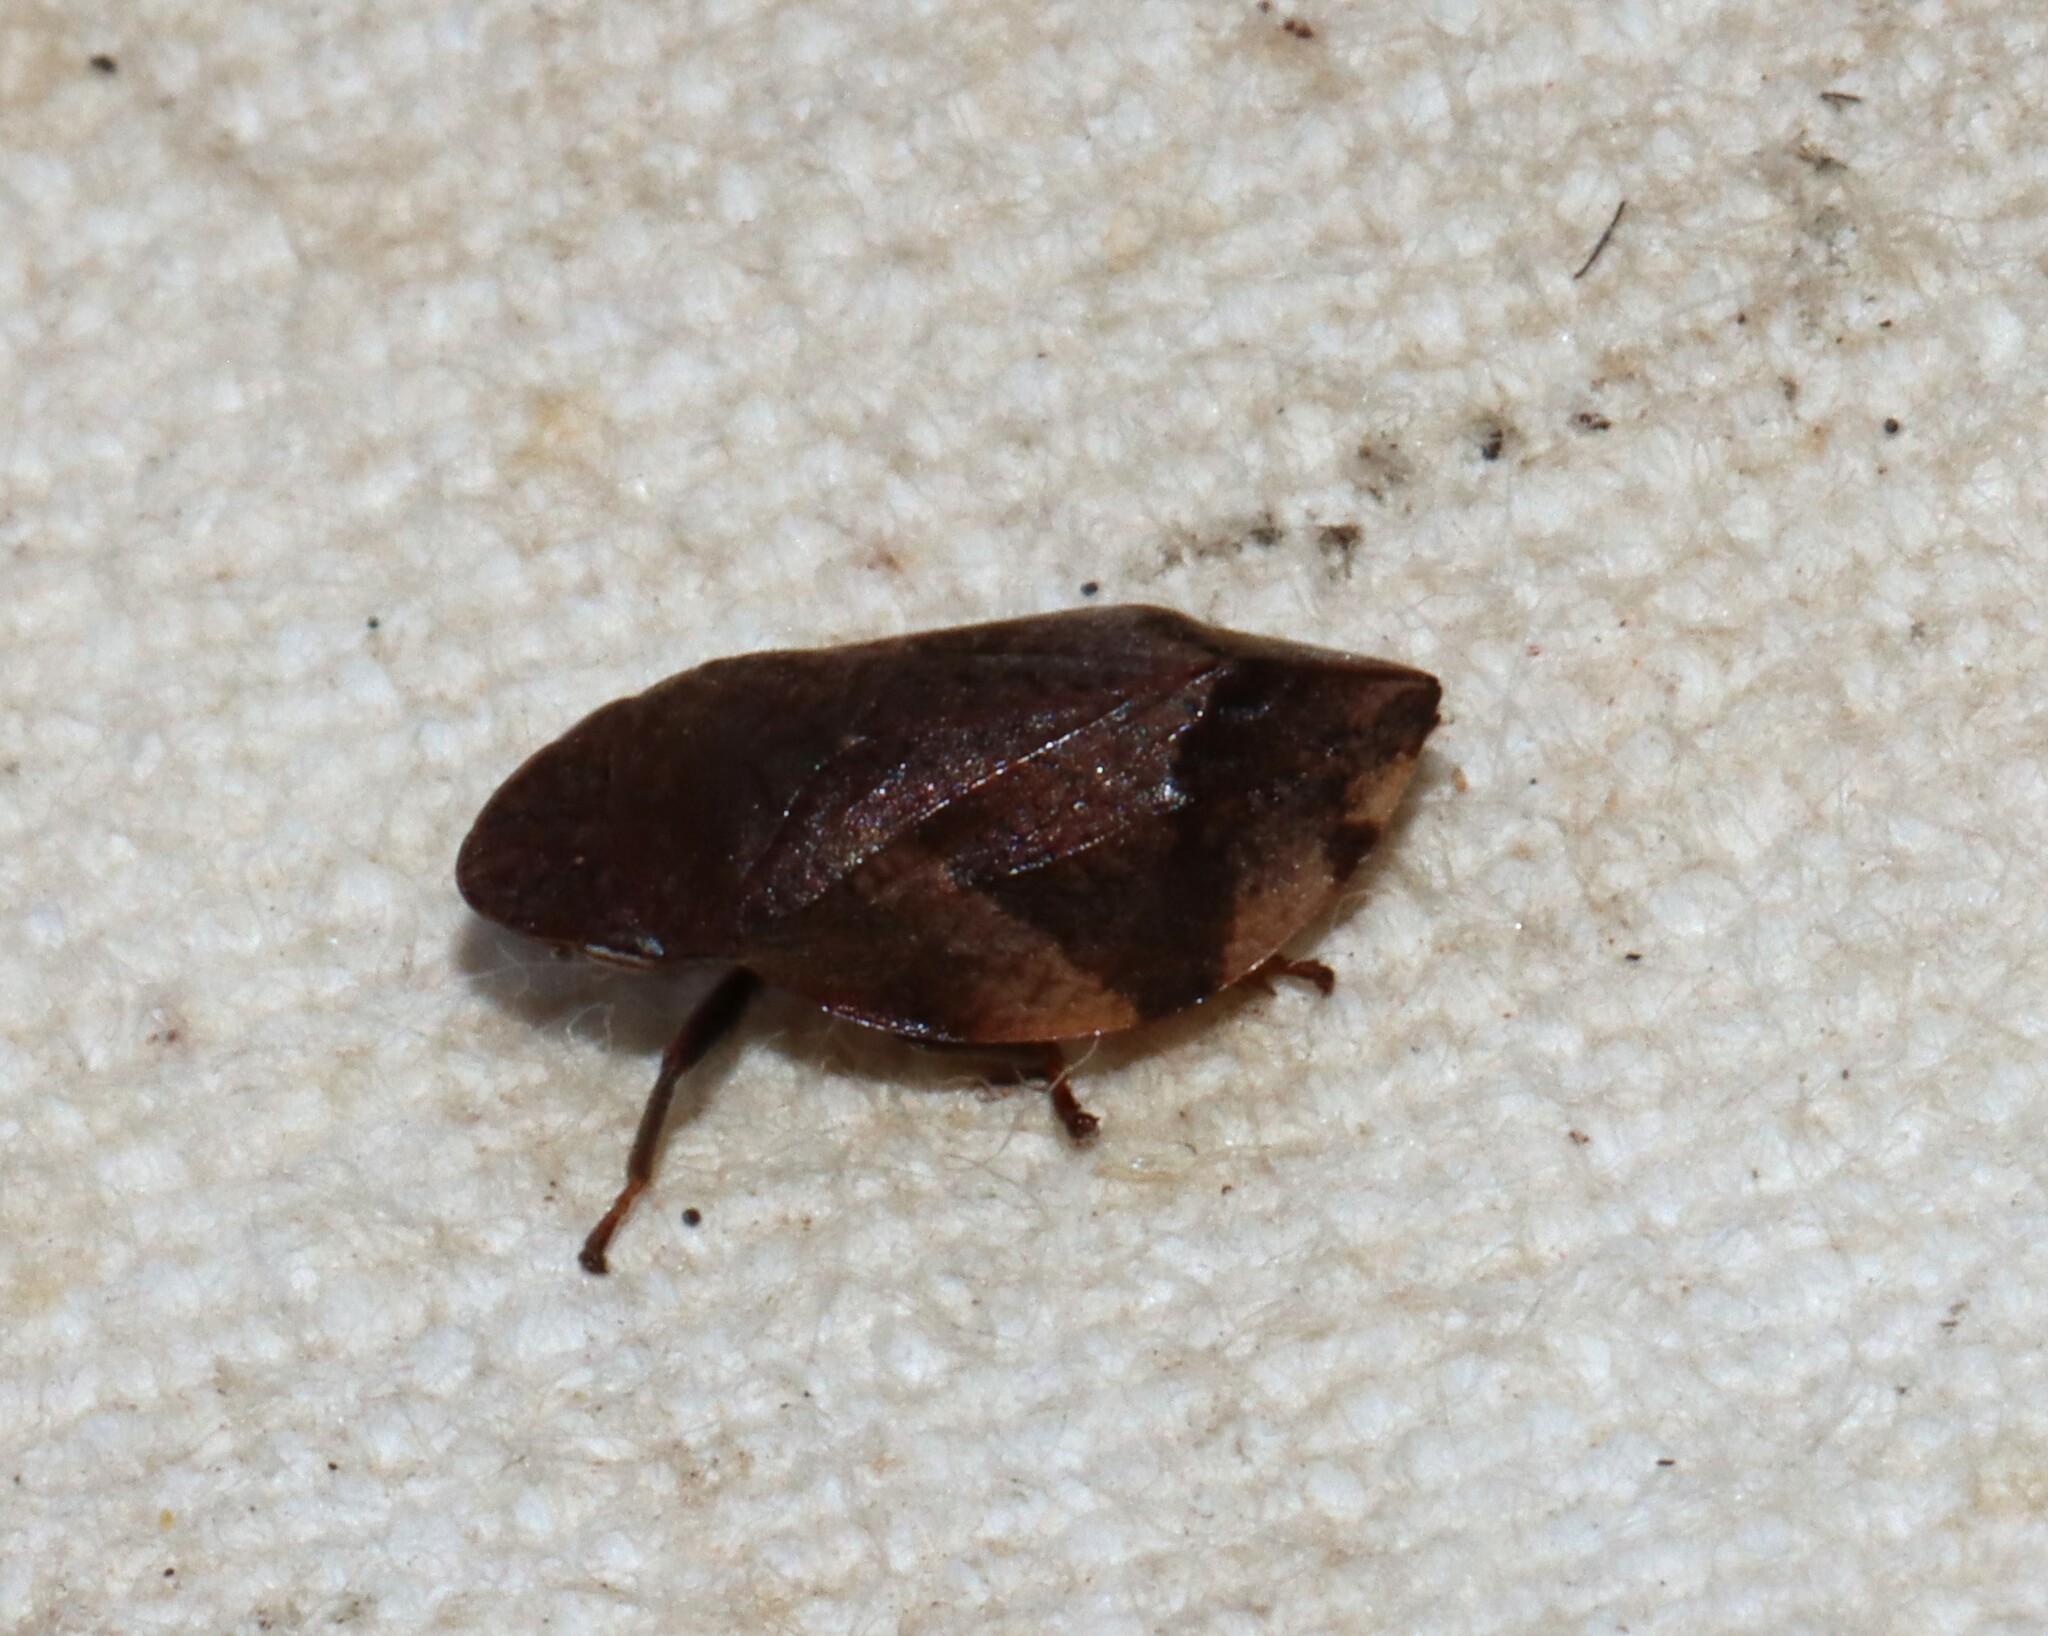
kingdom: Animalia
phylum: Arthropoda
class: Insecta
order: Hemiptera
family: Aphrophoridae
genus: Lepyronia
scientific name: Lepyronia quadrangularis
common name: Diamond-backed spittlebug
